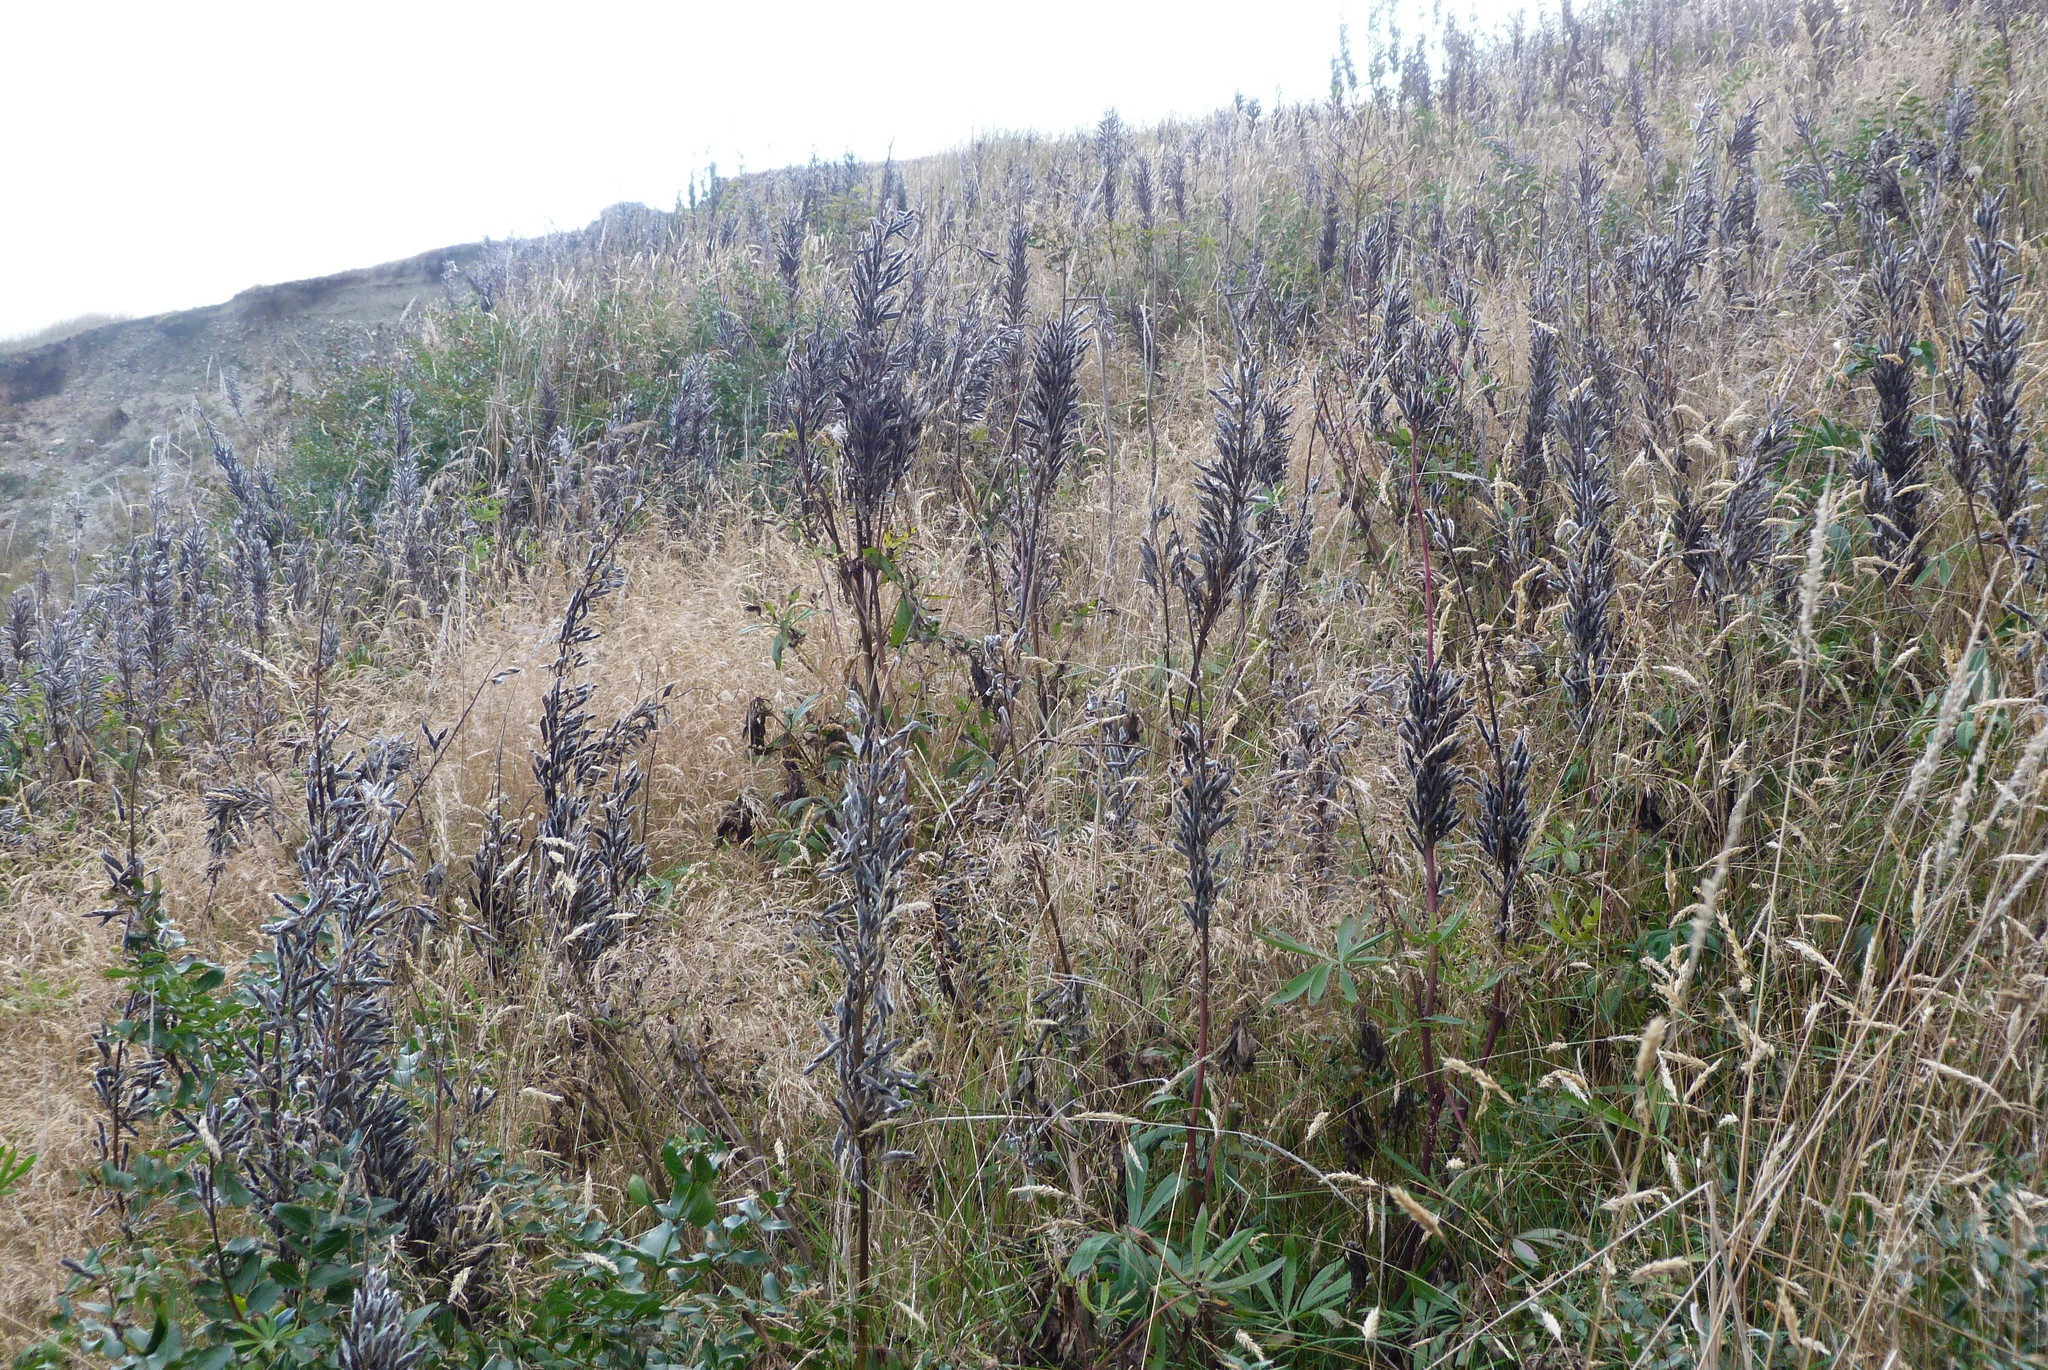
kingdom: Plantae
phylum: Tracheophyta
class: Magnoliopsida
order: Fabales
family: Fabaceae
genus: Lupinus
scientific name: Lupinus polyphyllus
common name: Garden lupin
